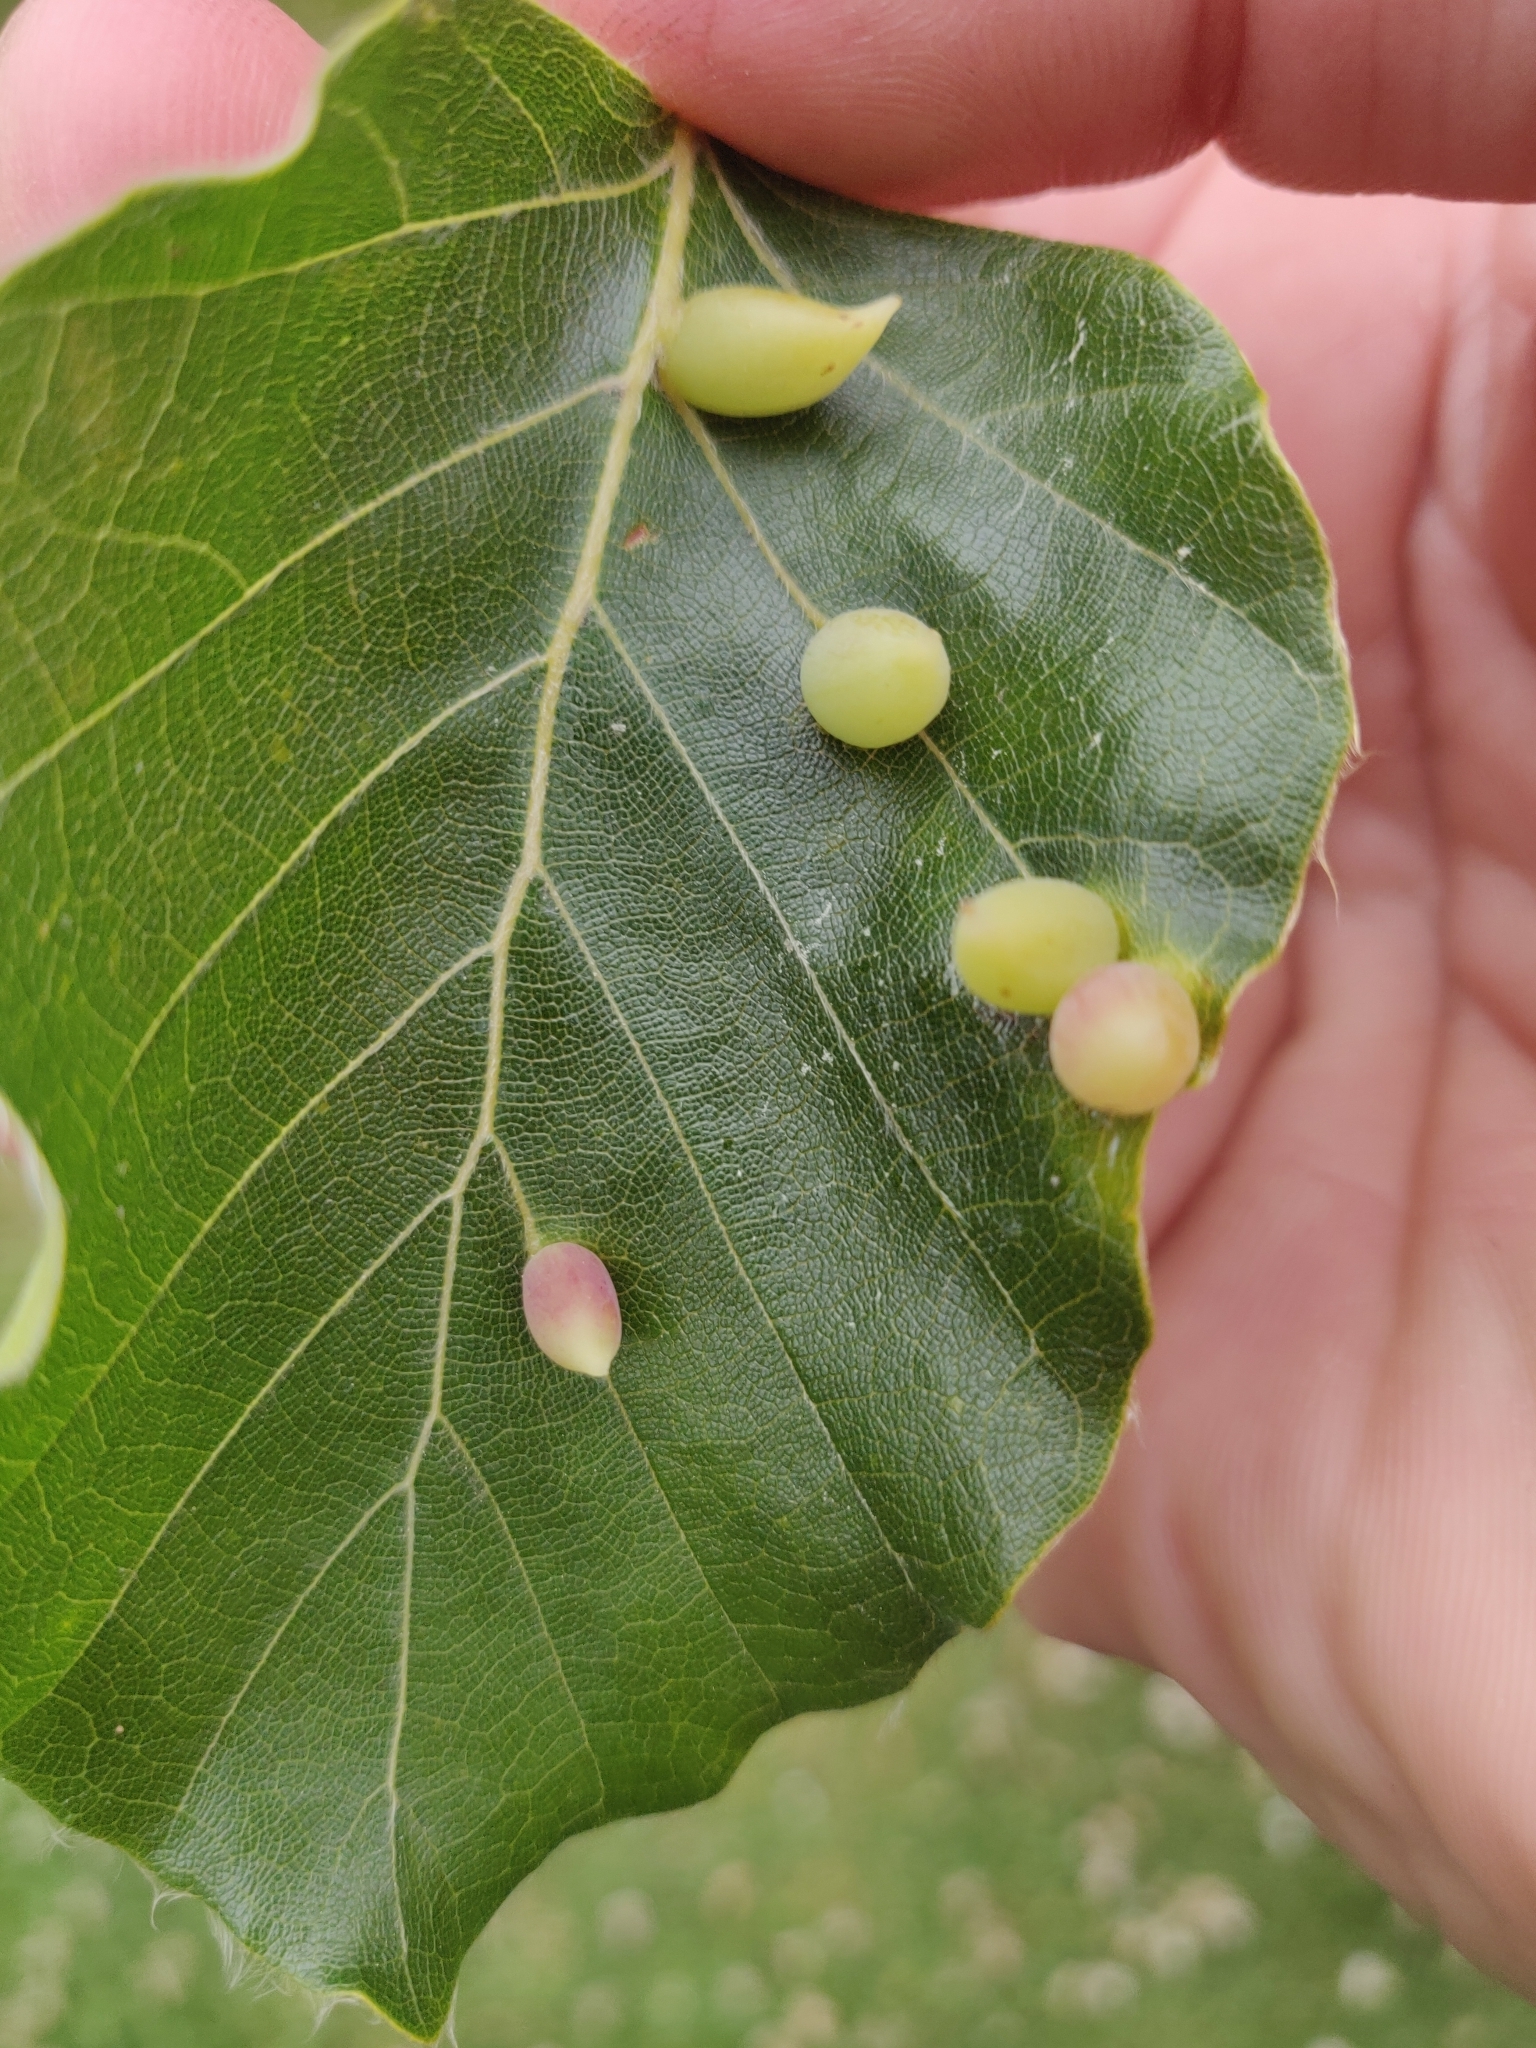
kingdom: Animalia
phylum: Arthropoda
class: Insecta
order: Diptera
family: Cecidomyiidae
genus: Mikiola
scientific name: Mikiola fagi
